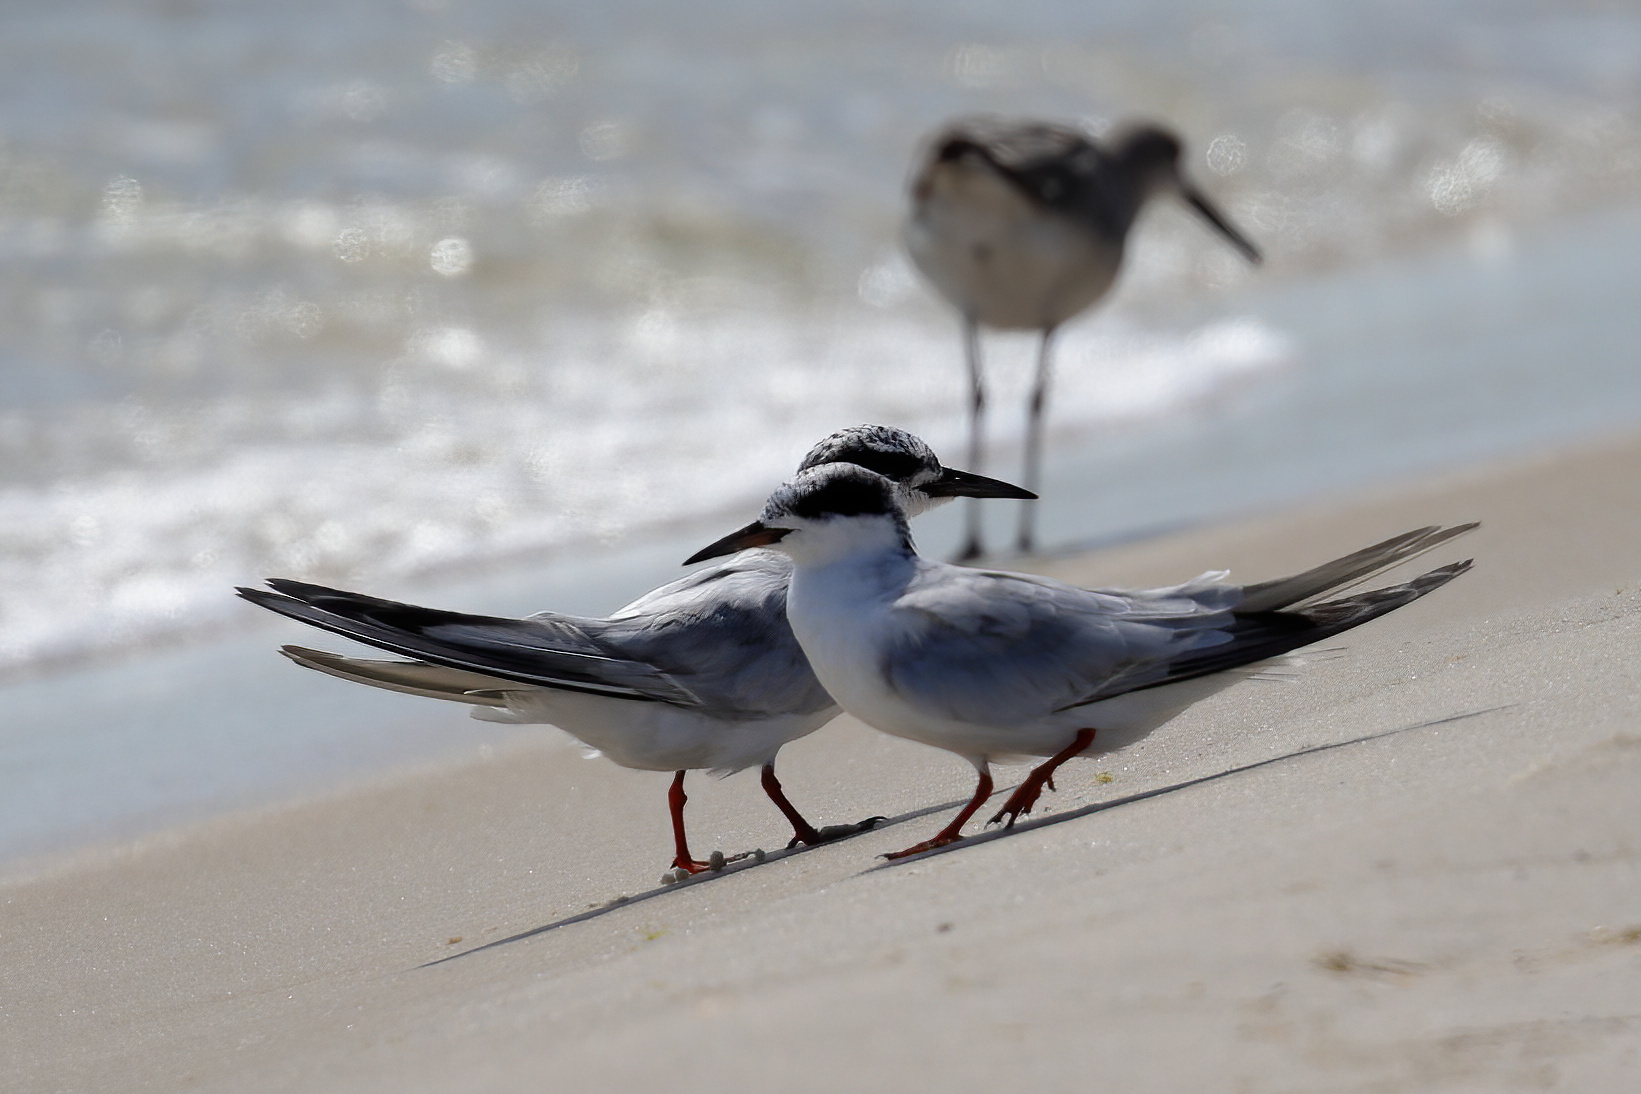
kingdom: Animalia
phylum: Chordata
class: Aves
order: Charadriiformes
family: Laridae
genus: Sterna
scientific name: Sterna forsteri
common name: Forster's tern
